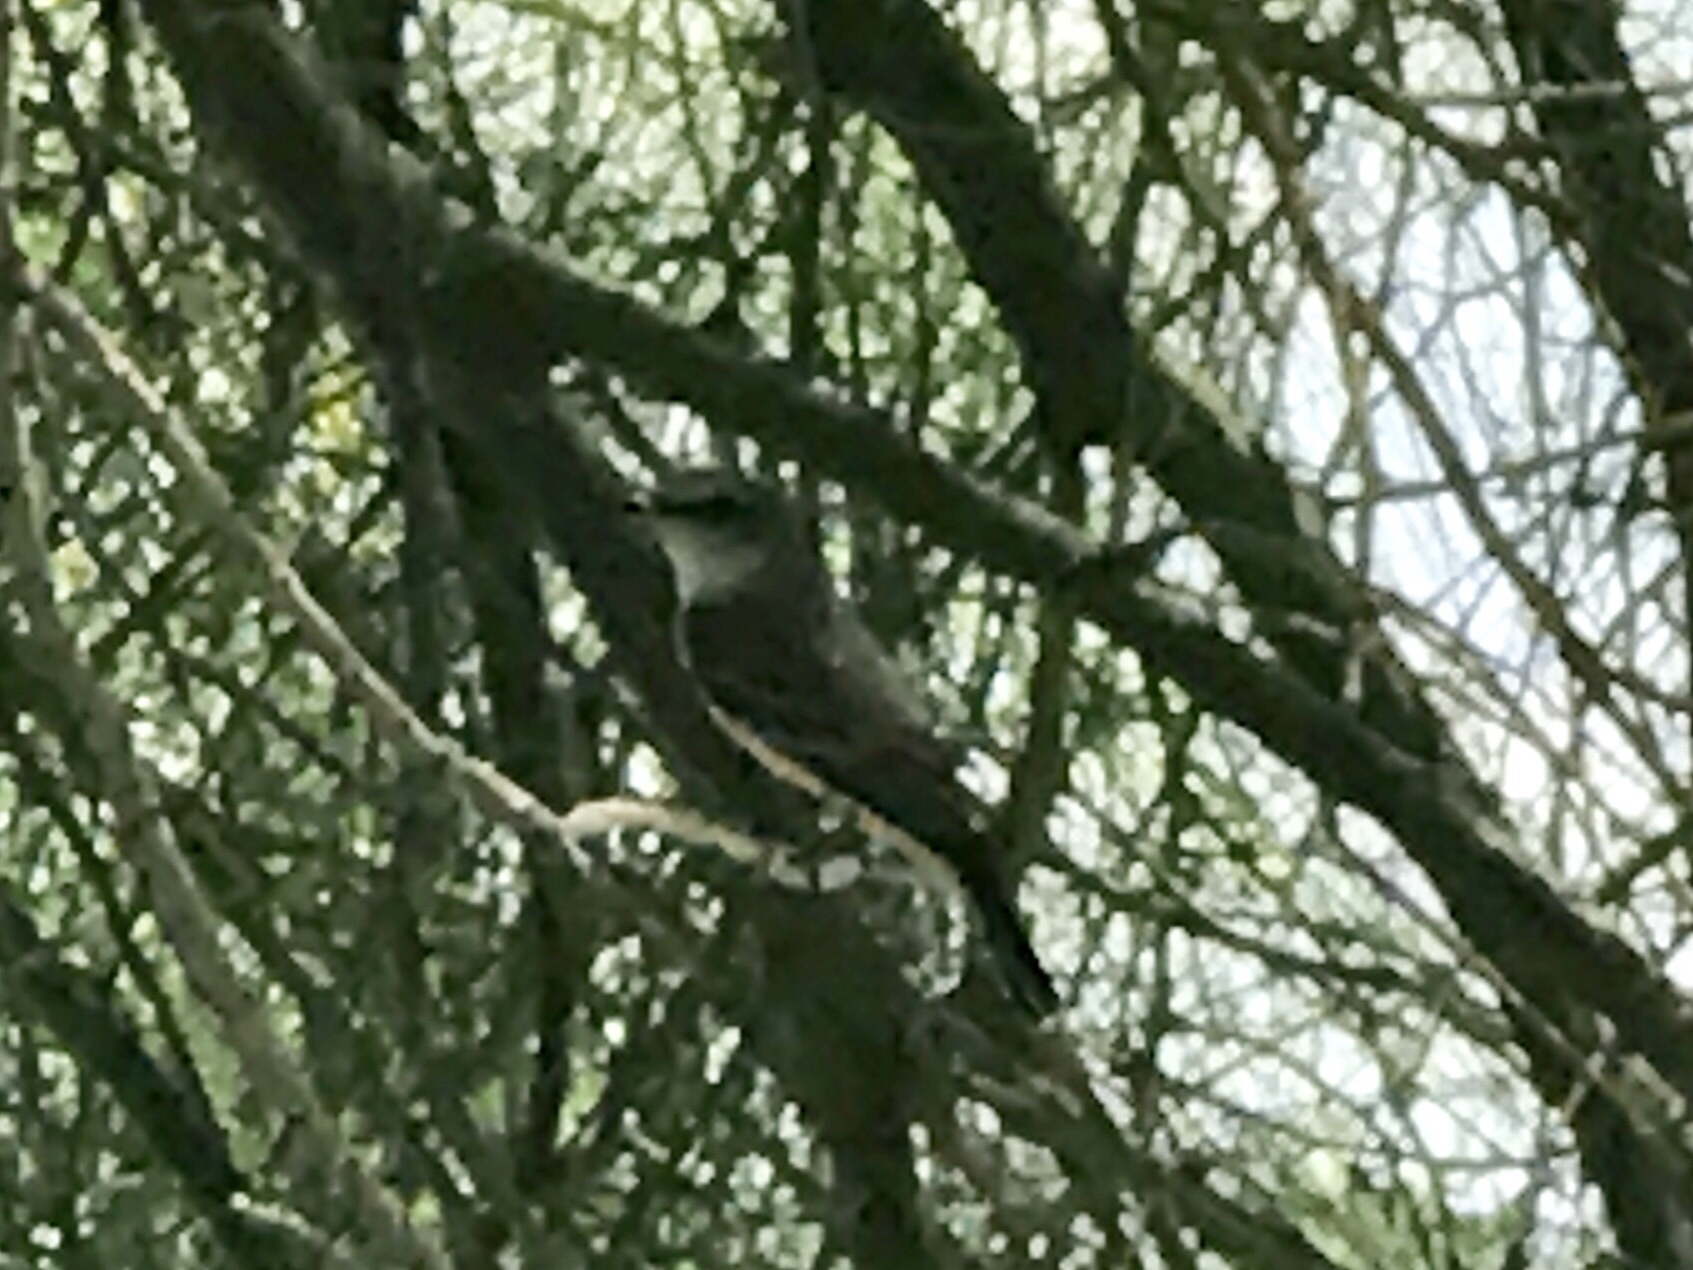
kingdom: Animalia
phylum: Chordata
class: Aves
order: Passeriformes
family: Tyrannidae
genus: Pyrocephalus
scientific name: Pyrocephalus rubinus
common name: Vermilion flycatcher
